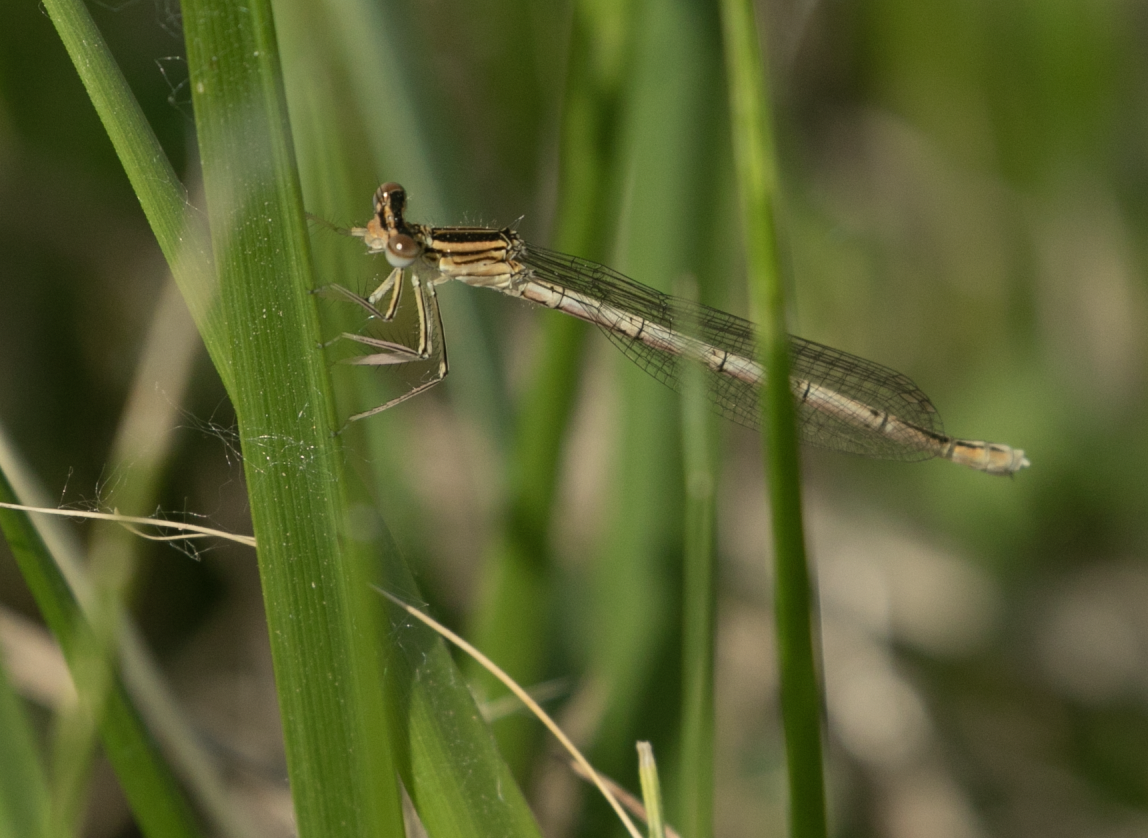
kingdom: Animalia
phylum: Arthropoda
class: Insecta
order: Odonata
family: Platycnemididae
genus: Platycnemis
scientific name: Platycnemis pennipes
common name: White-legged damselfly
